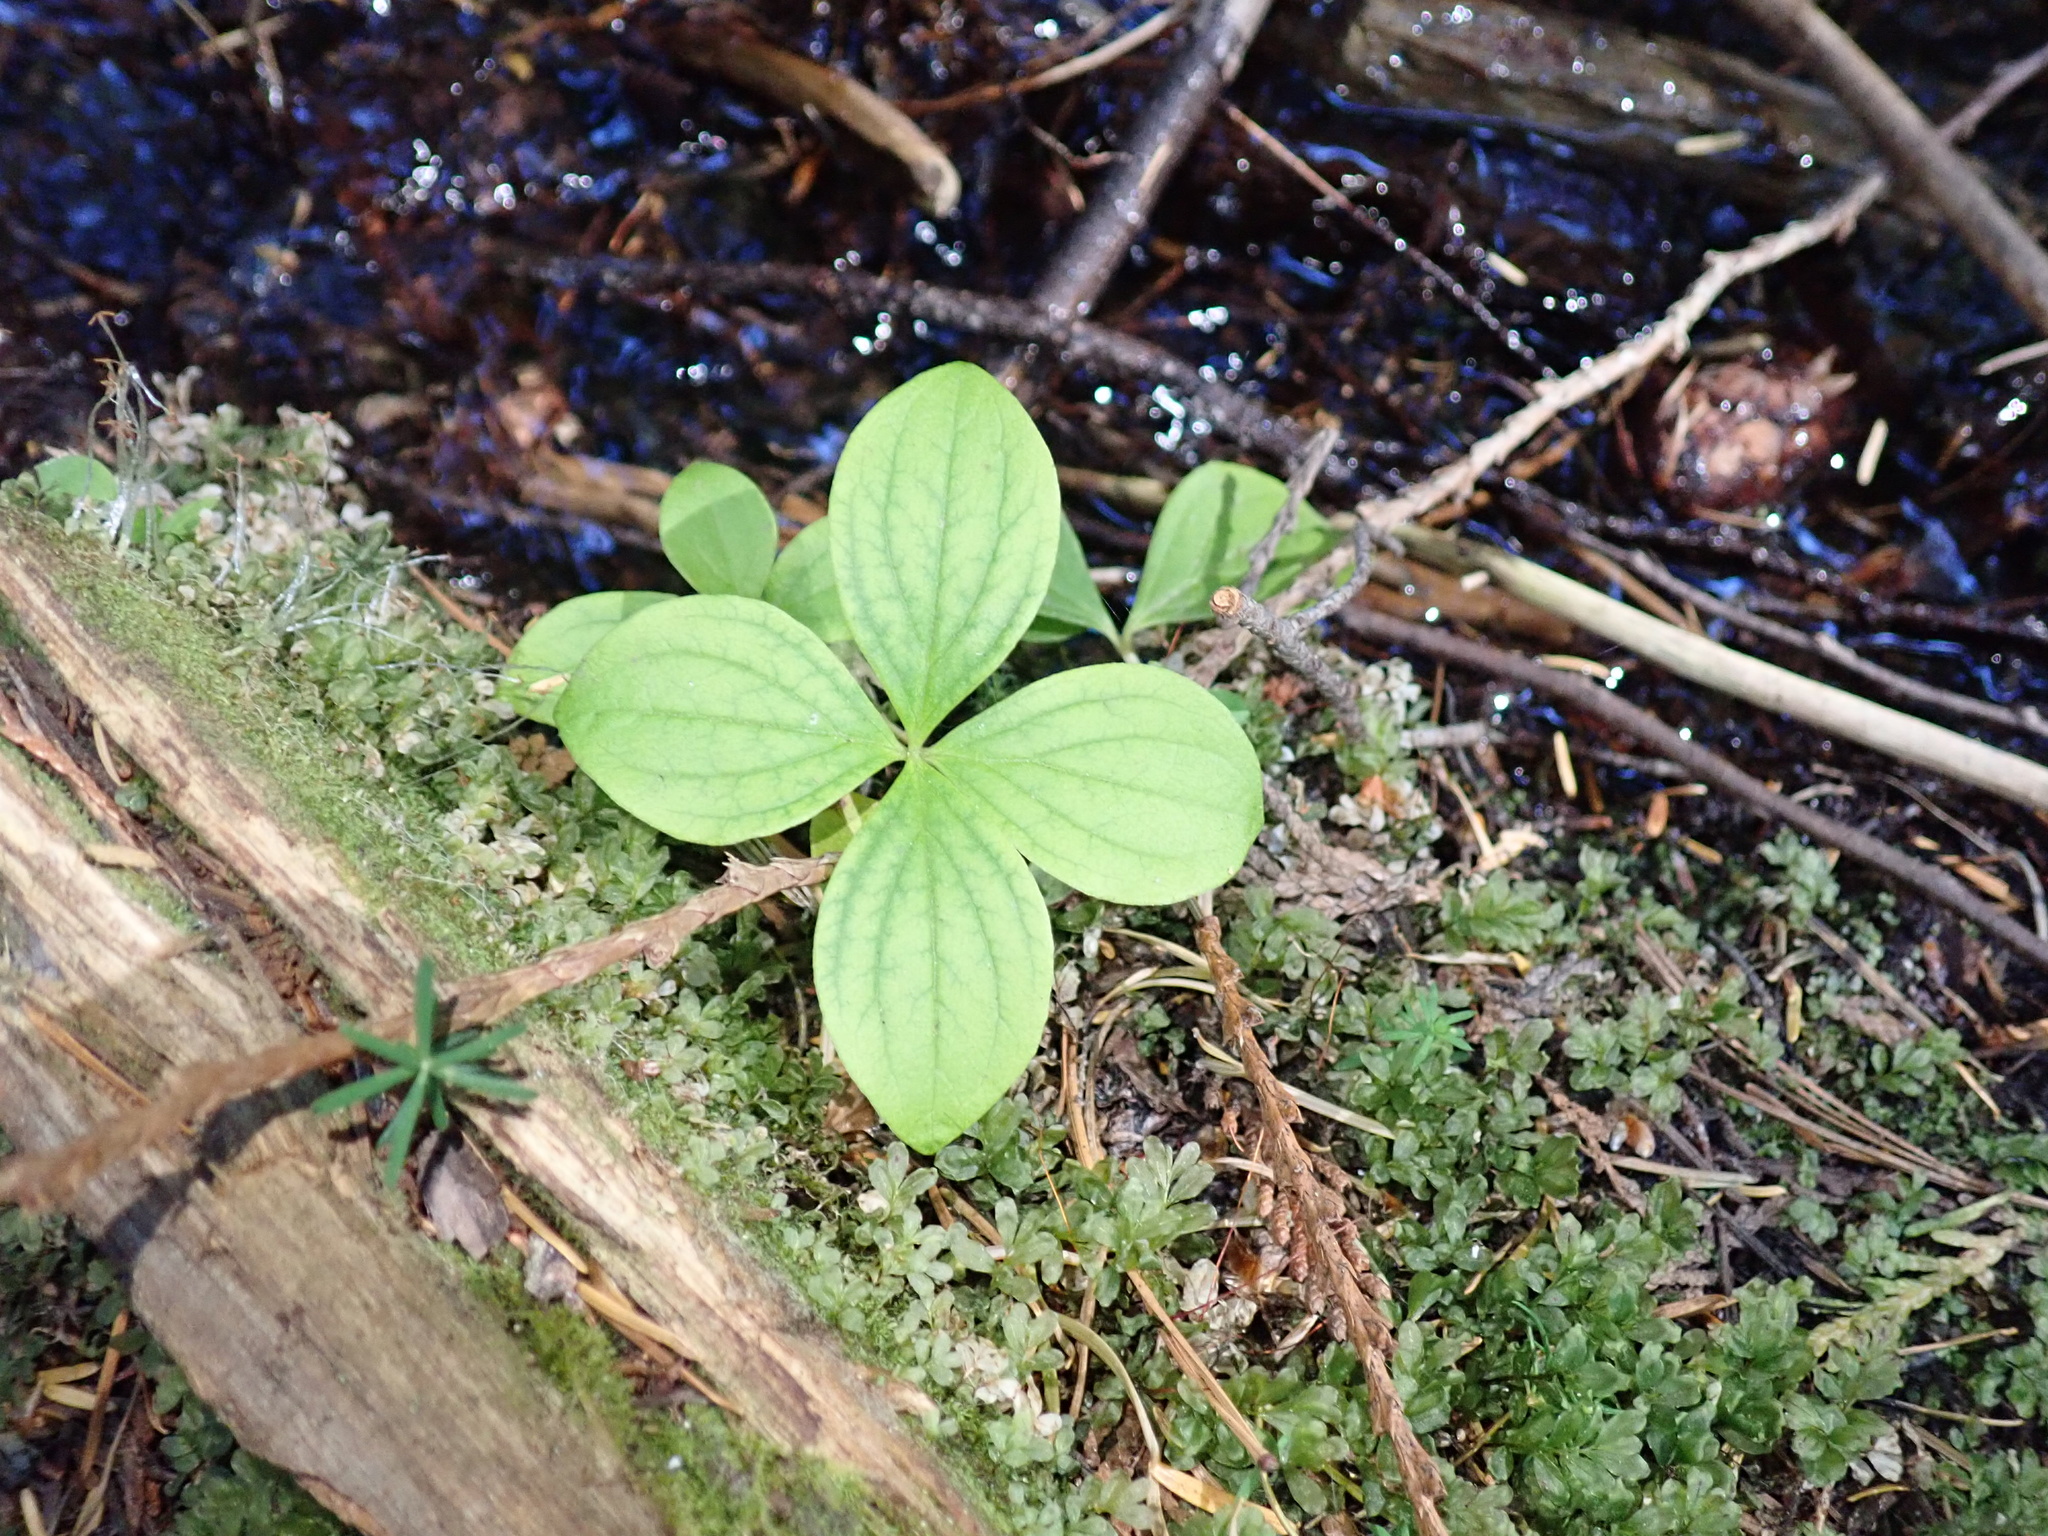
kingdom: Plantae
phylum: Tracheophyta
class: Magnoliopsida
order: Cornales
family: Cornaceae
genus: Cornus
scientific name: Cornus unalaschkensis
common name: Alaska bunchberry
